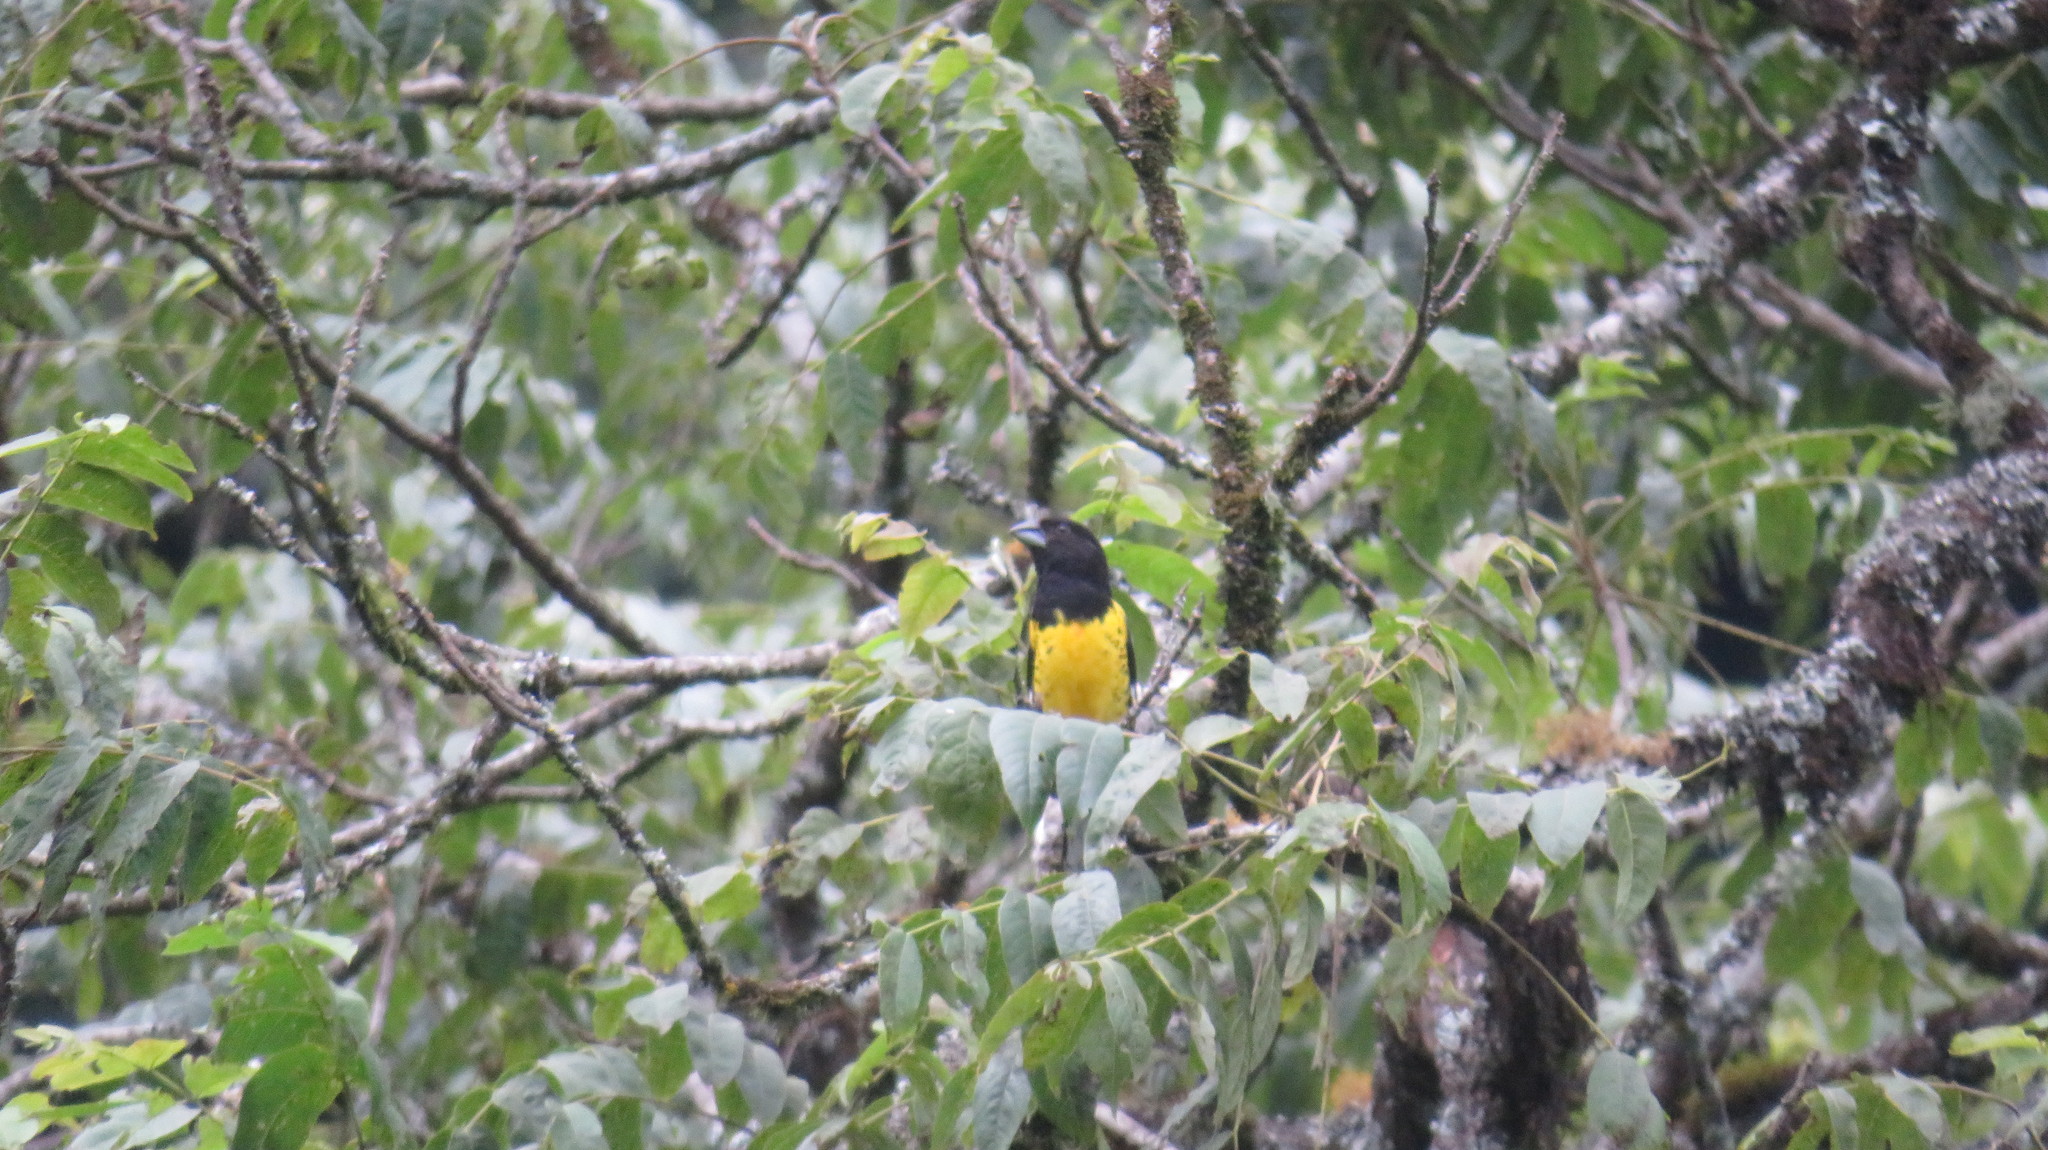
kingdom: Animalia
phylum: Chordata
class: Aves
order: Passeriformes
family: Cardinalidae
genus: Pheucticus
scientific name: Pheucticus aureoventris
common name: Black-backed grosbeak
